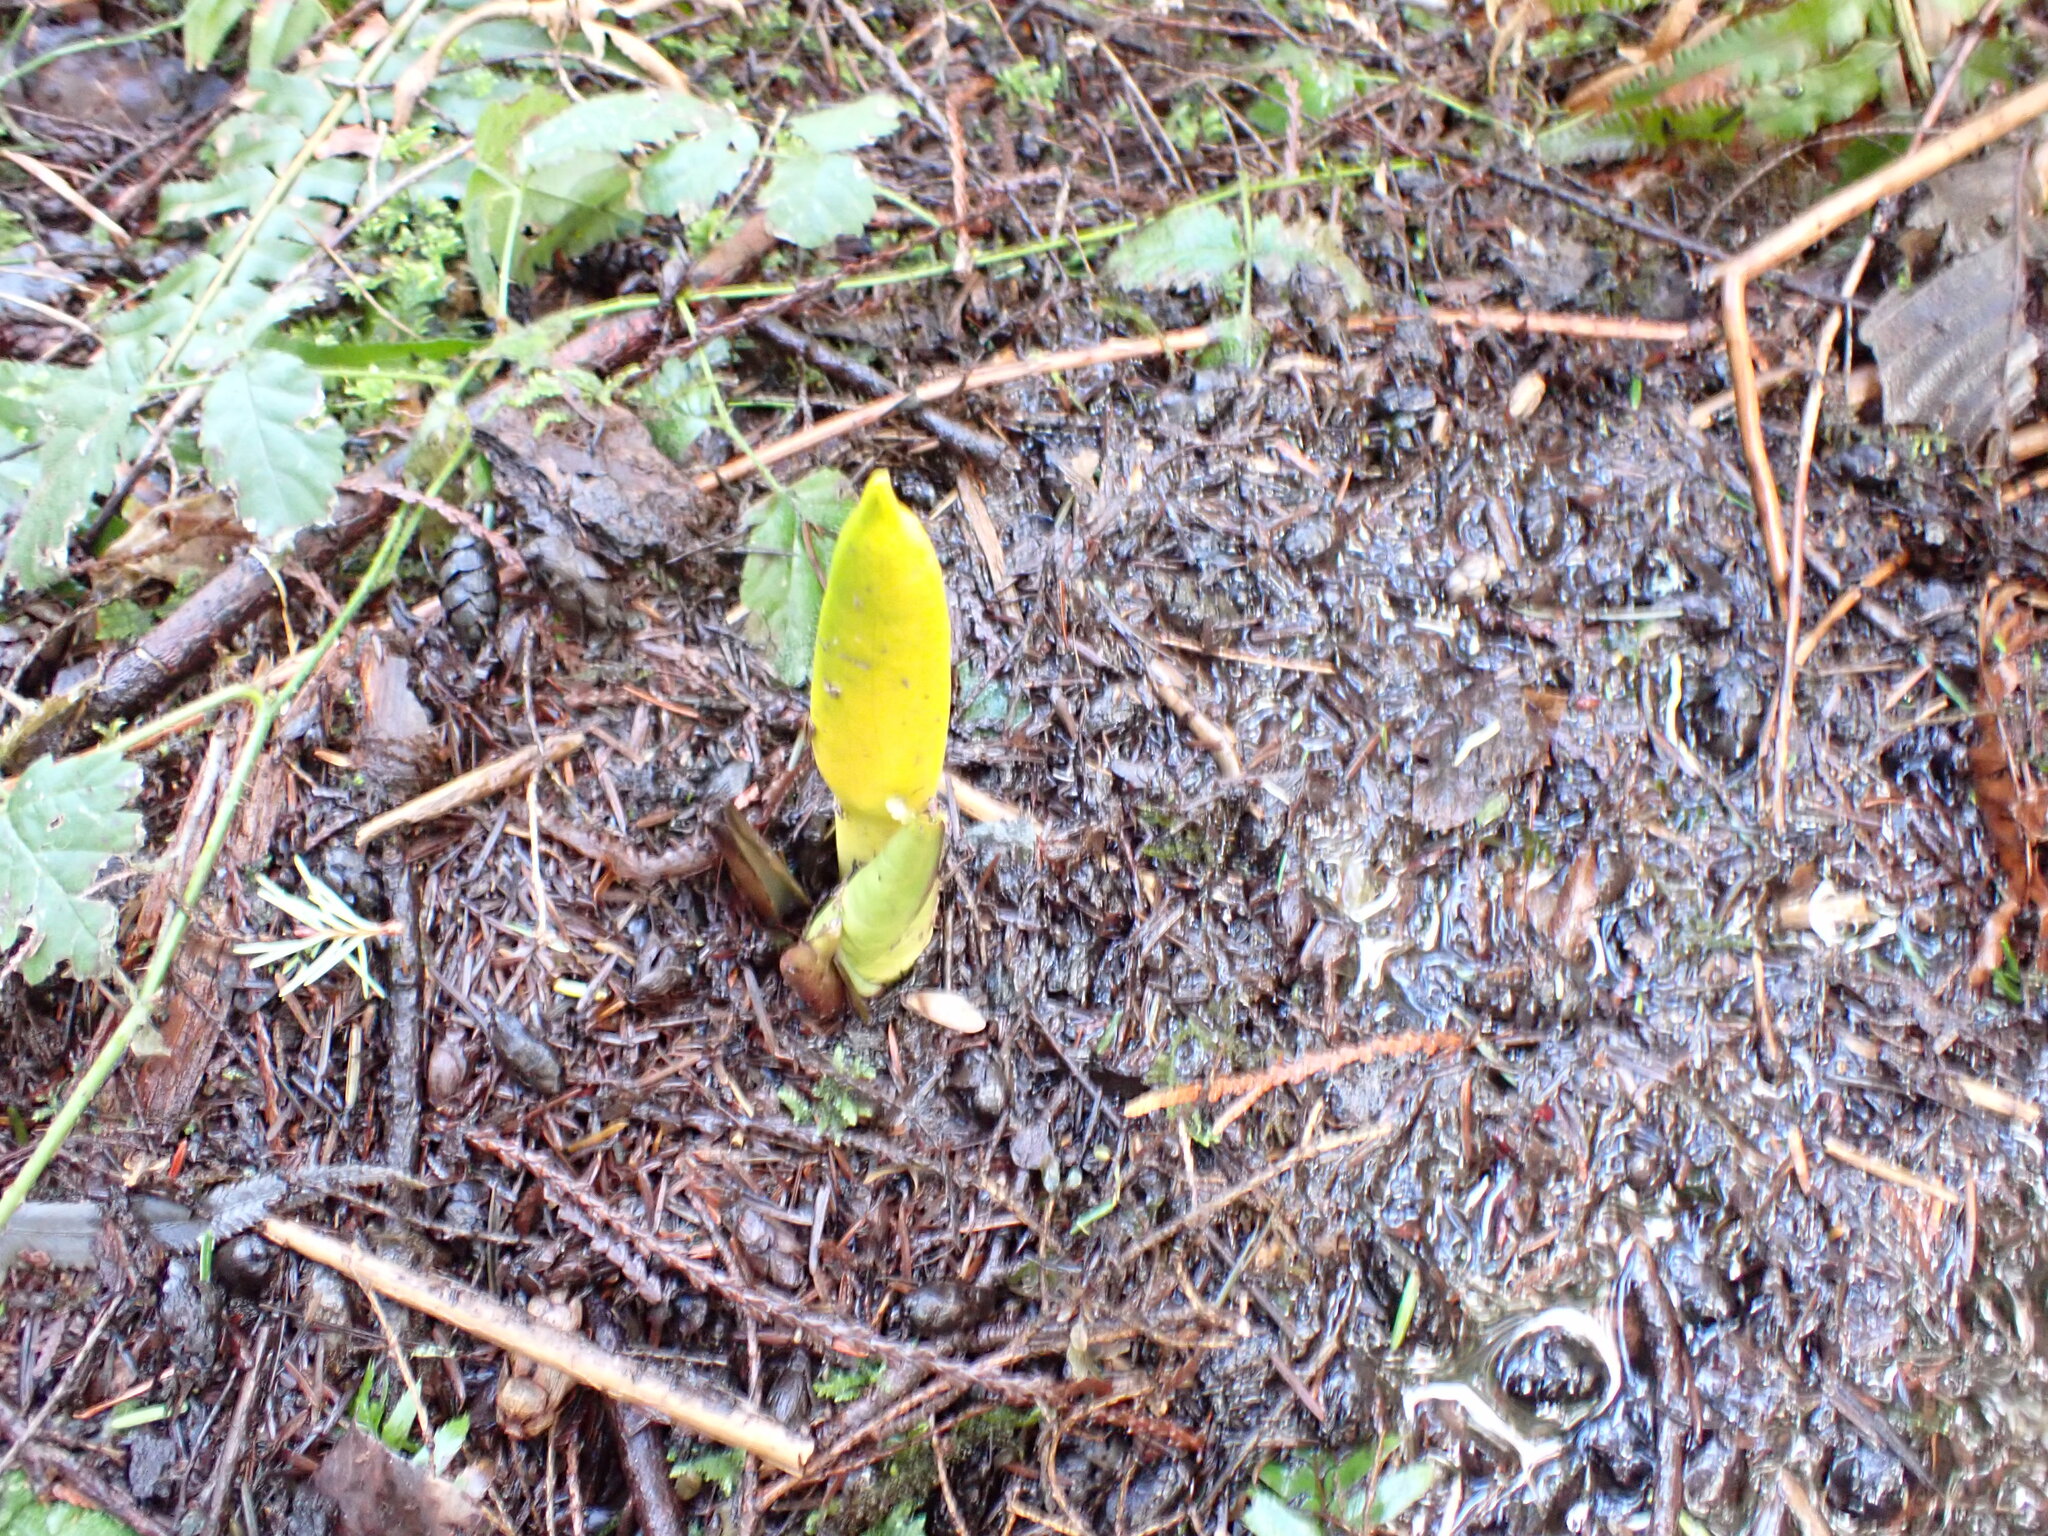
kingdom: Plantae
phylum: Tracheophyta
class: Liliopsida
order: Alismatales
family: Araceae
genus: Lysichiton
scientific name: Lysichiton americanus
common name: American skunk cabbage
